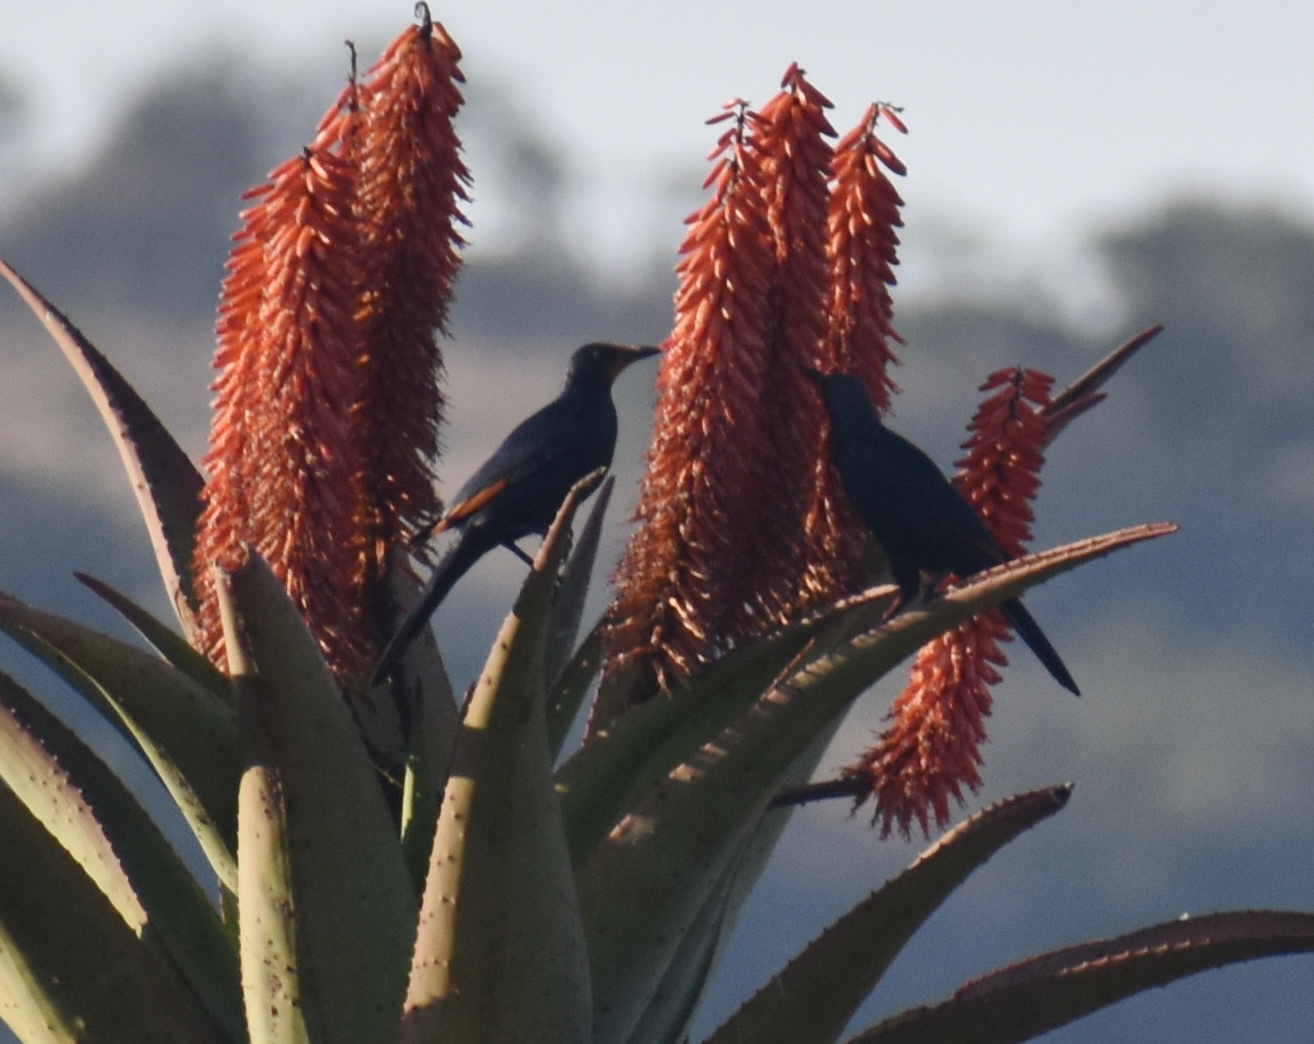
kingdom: Animalia
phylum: Chordata
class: Aves
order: Passeriformes
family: Sturnidae
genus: Onychognathus
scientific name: Onychognathus morio
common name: Red-winged starling
